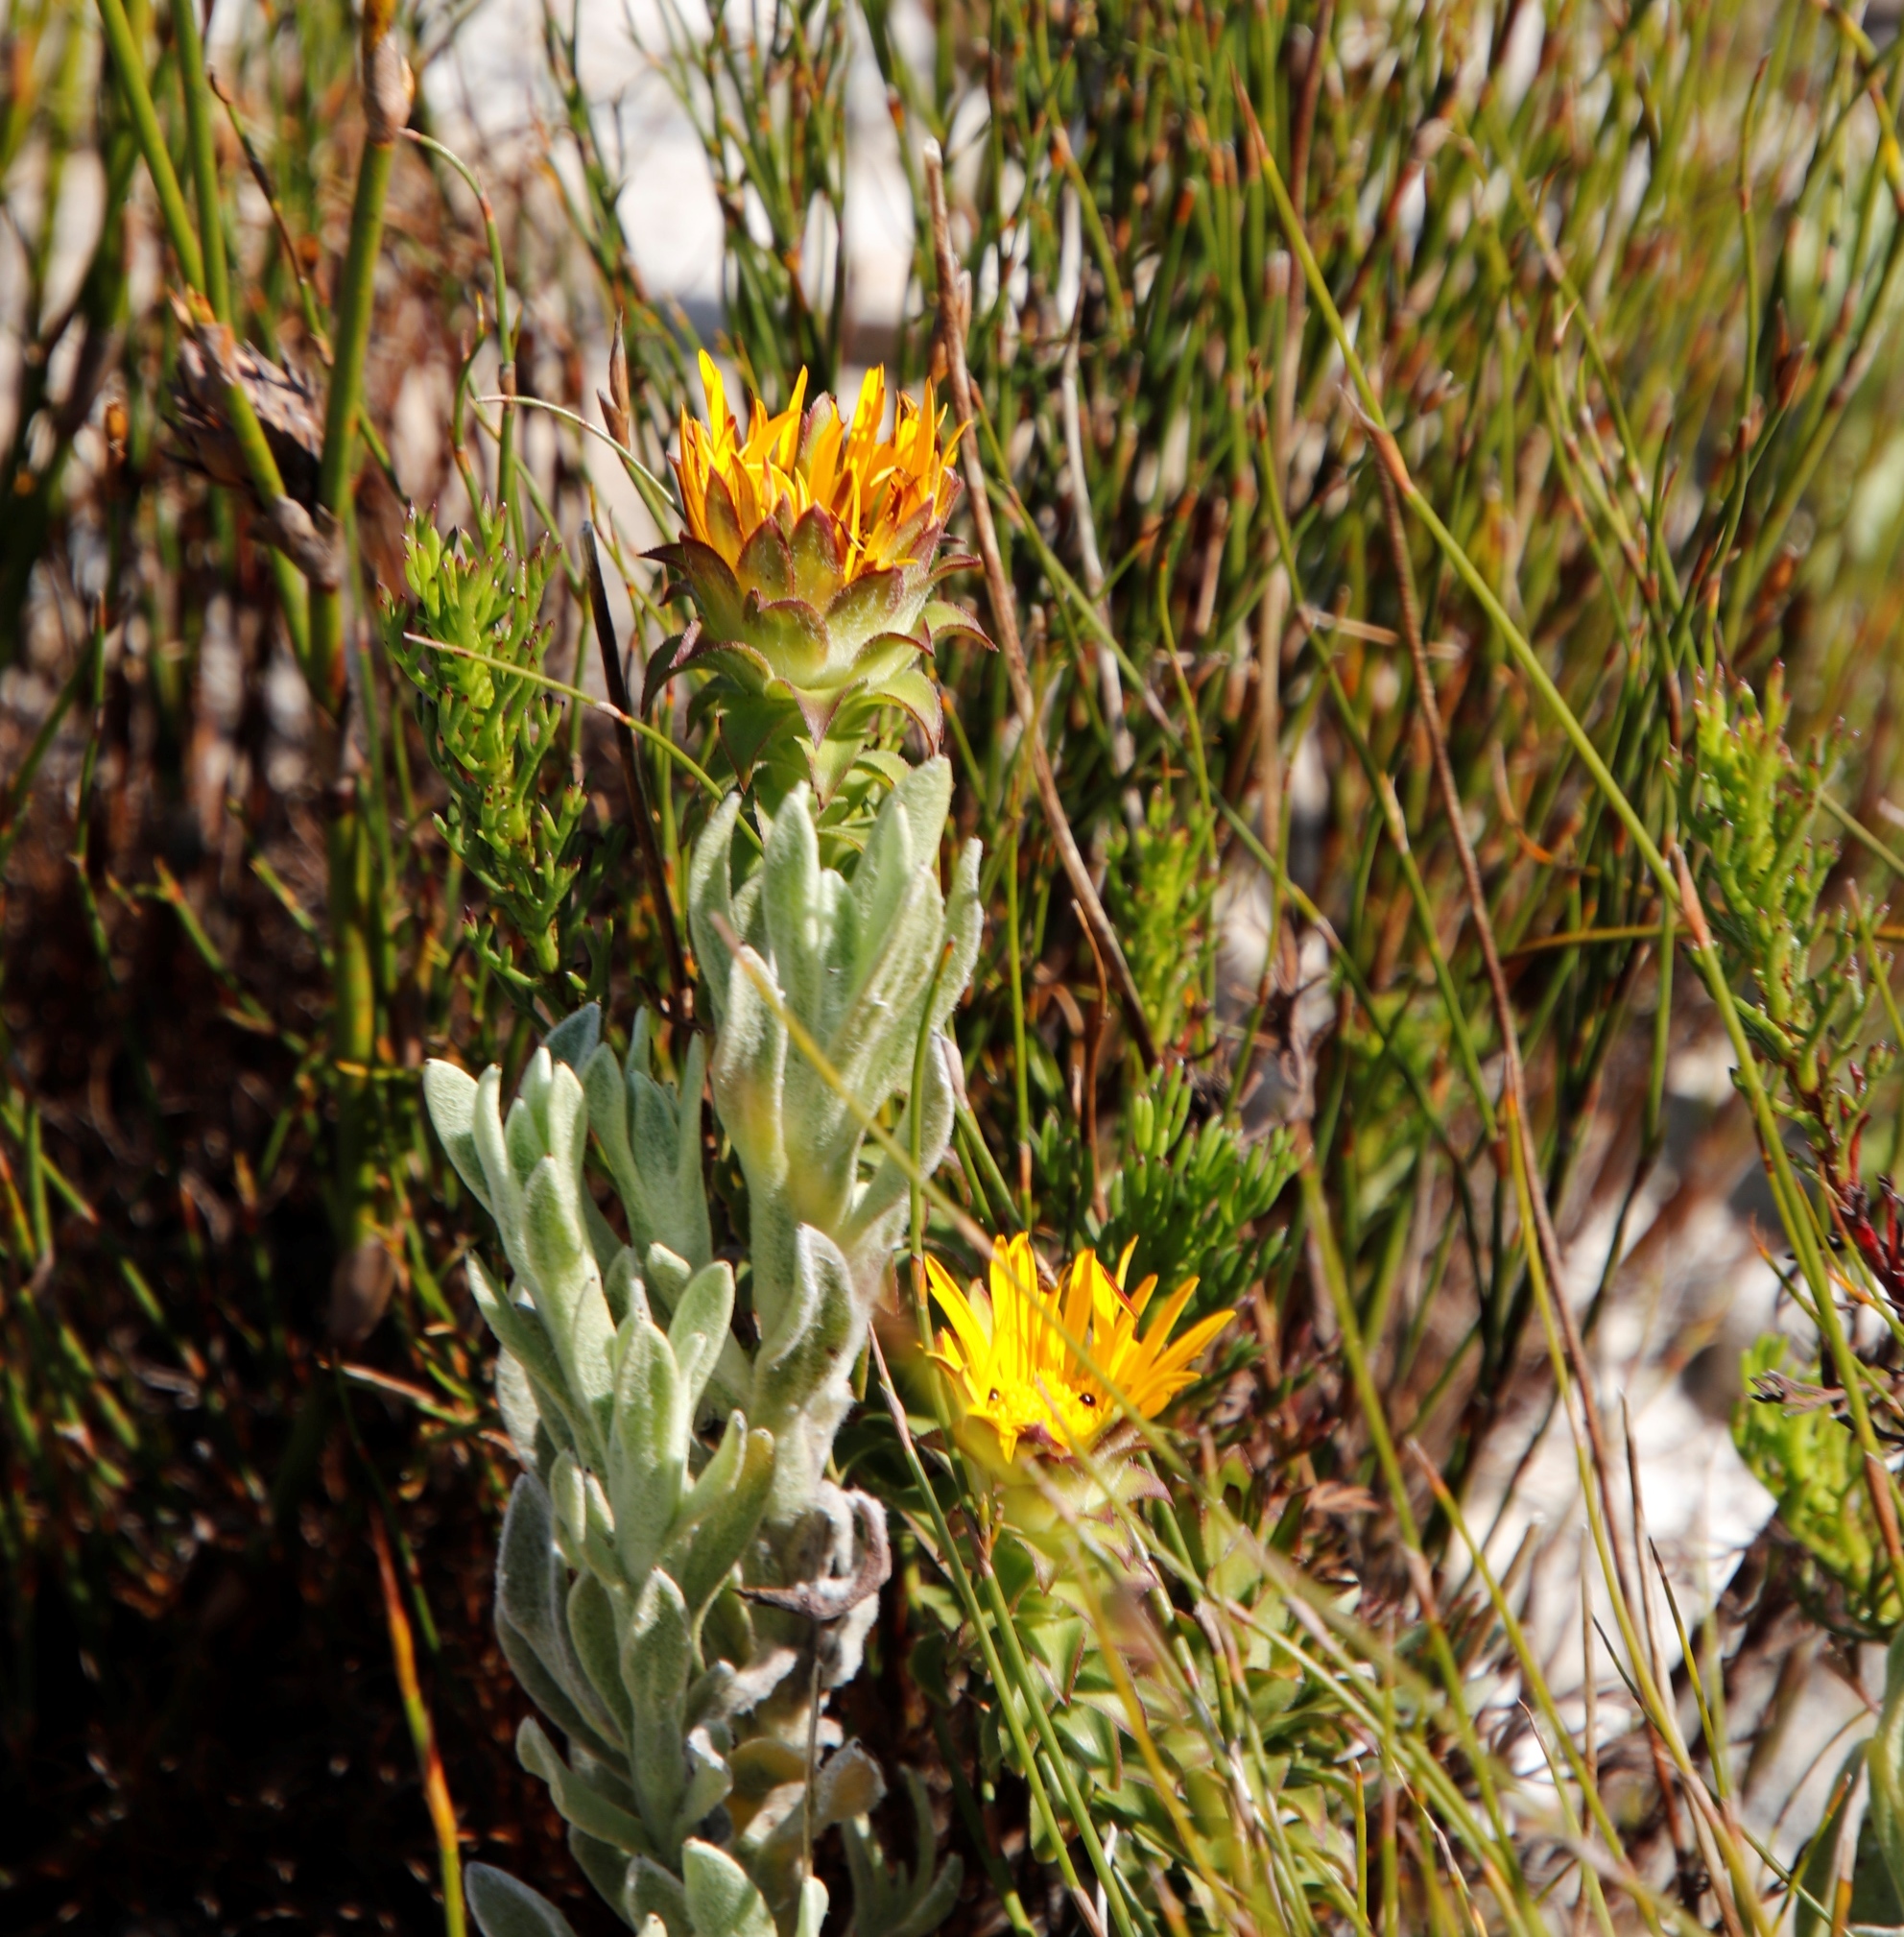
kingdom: Plantae
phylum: Tracheophyta
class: Magnoliopsida
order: Asterales
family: Asteraceae
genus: Oedera
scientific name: Oedera imbricata
